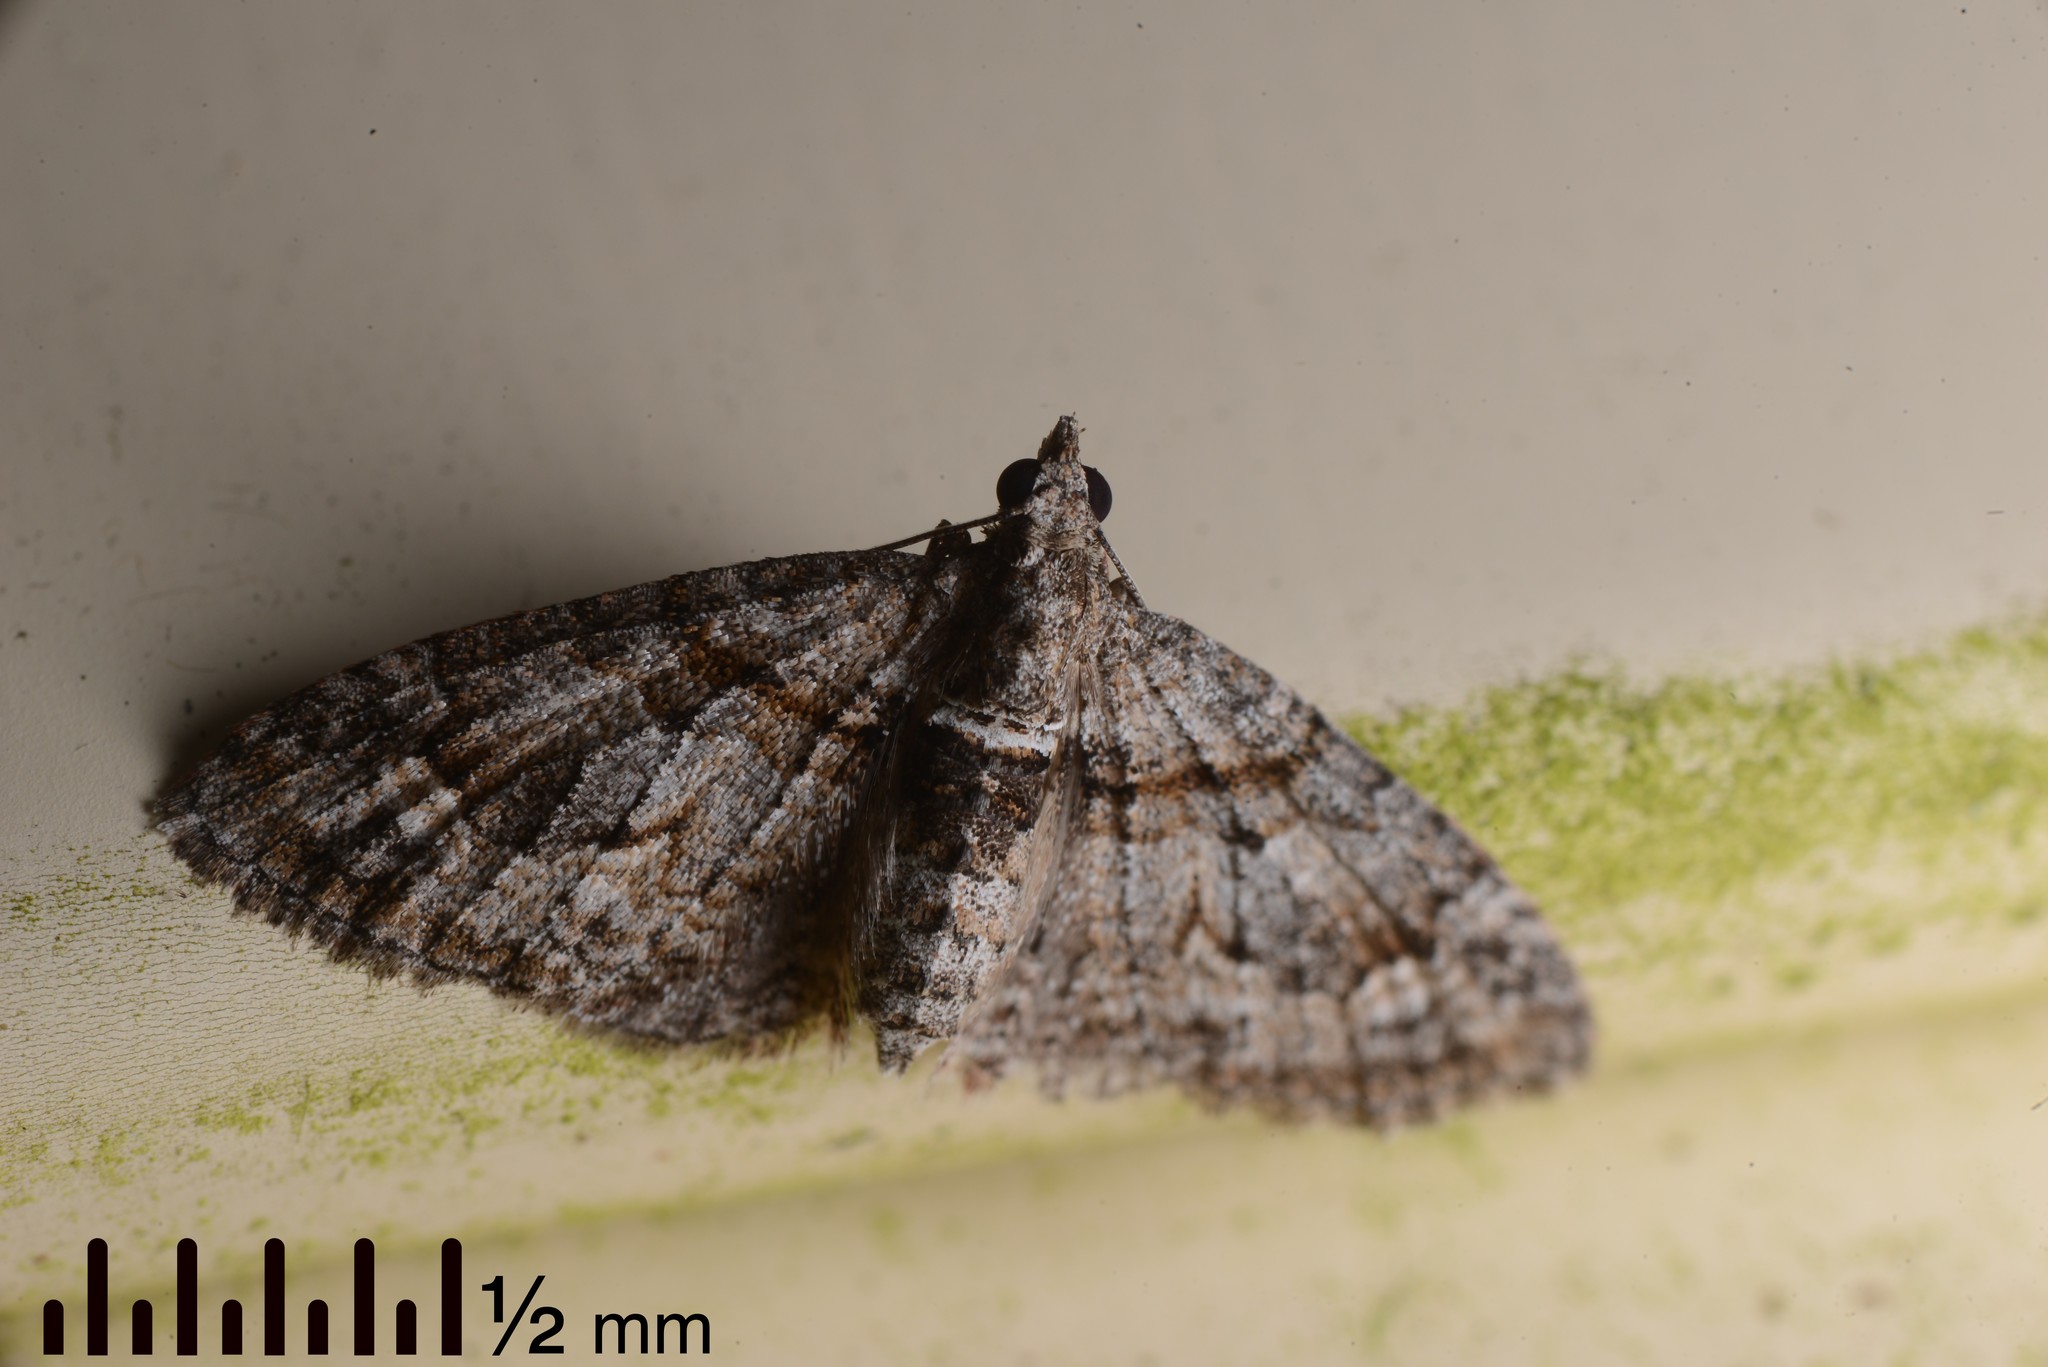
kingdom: Animalia
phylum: Arthropoda
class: Insecta
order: Lepidoptera
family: Geometridae
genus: Phrissogonus
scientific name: Phrissogonus laticostata
